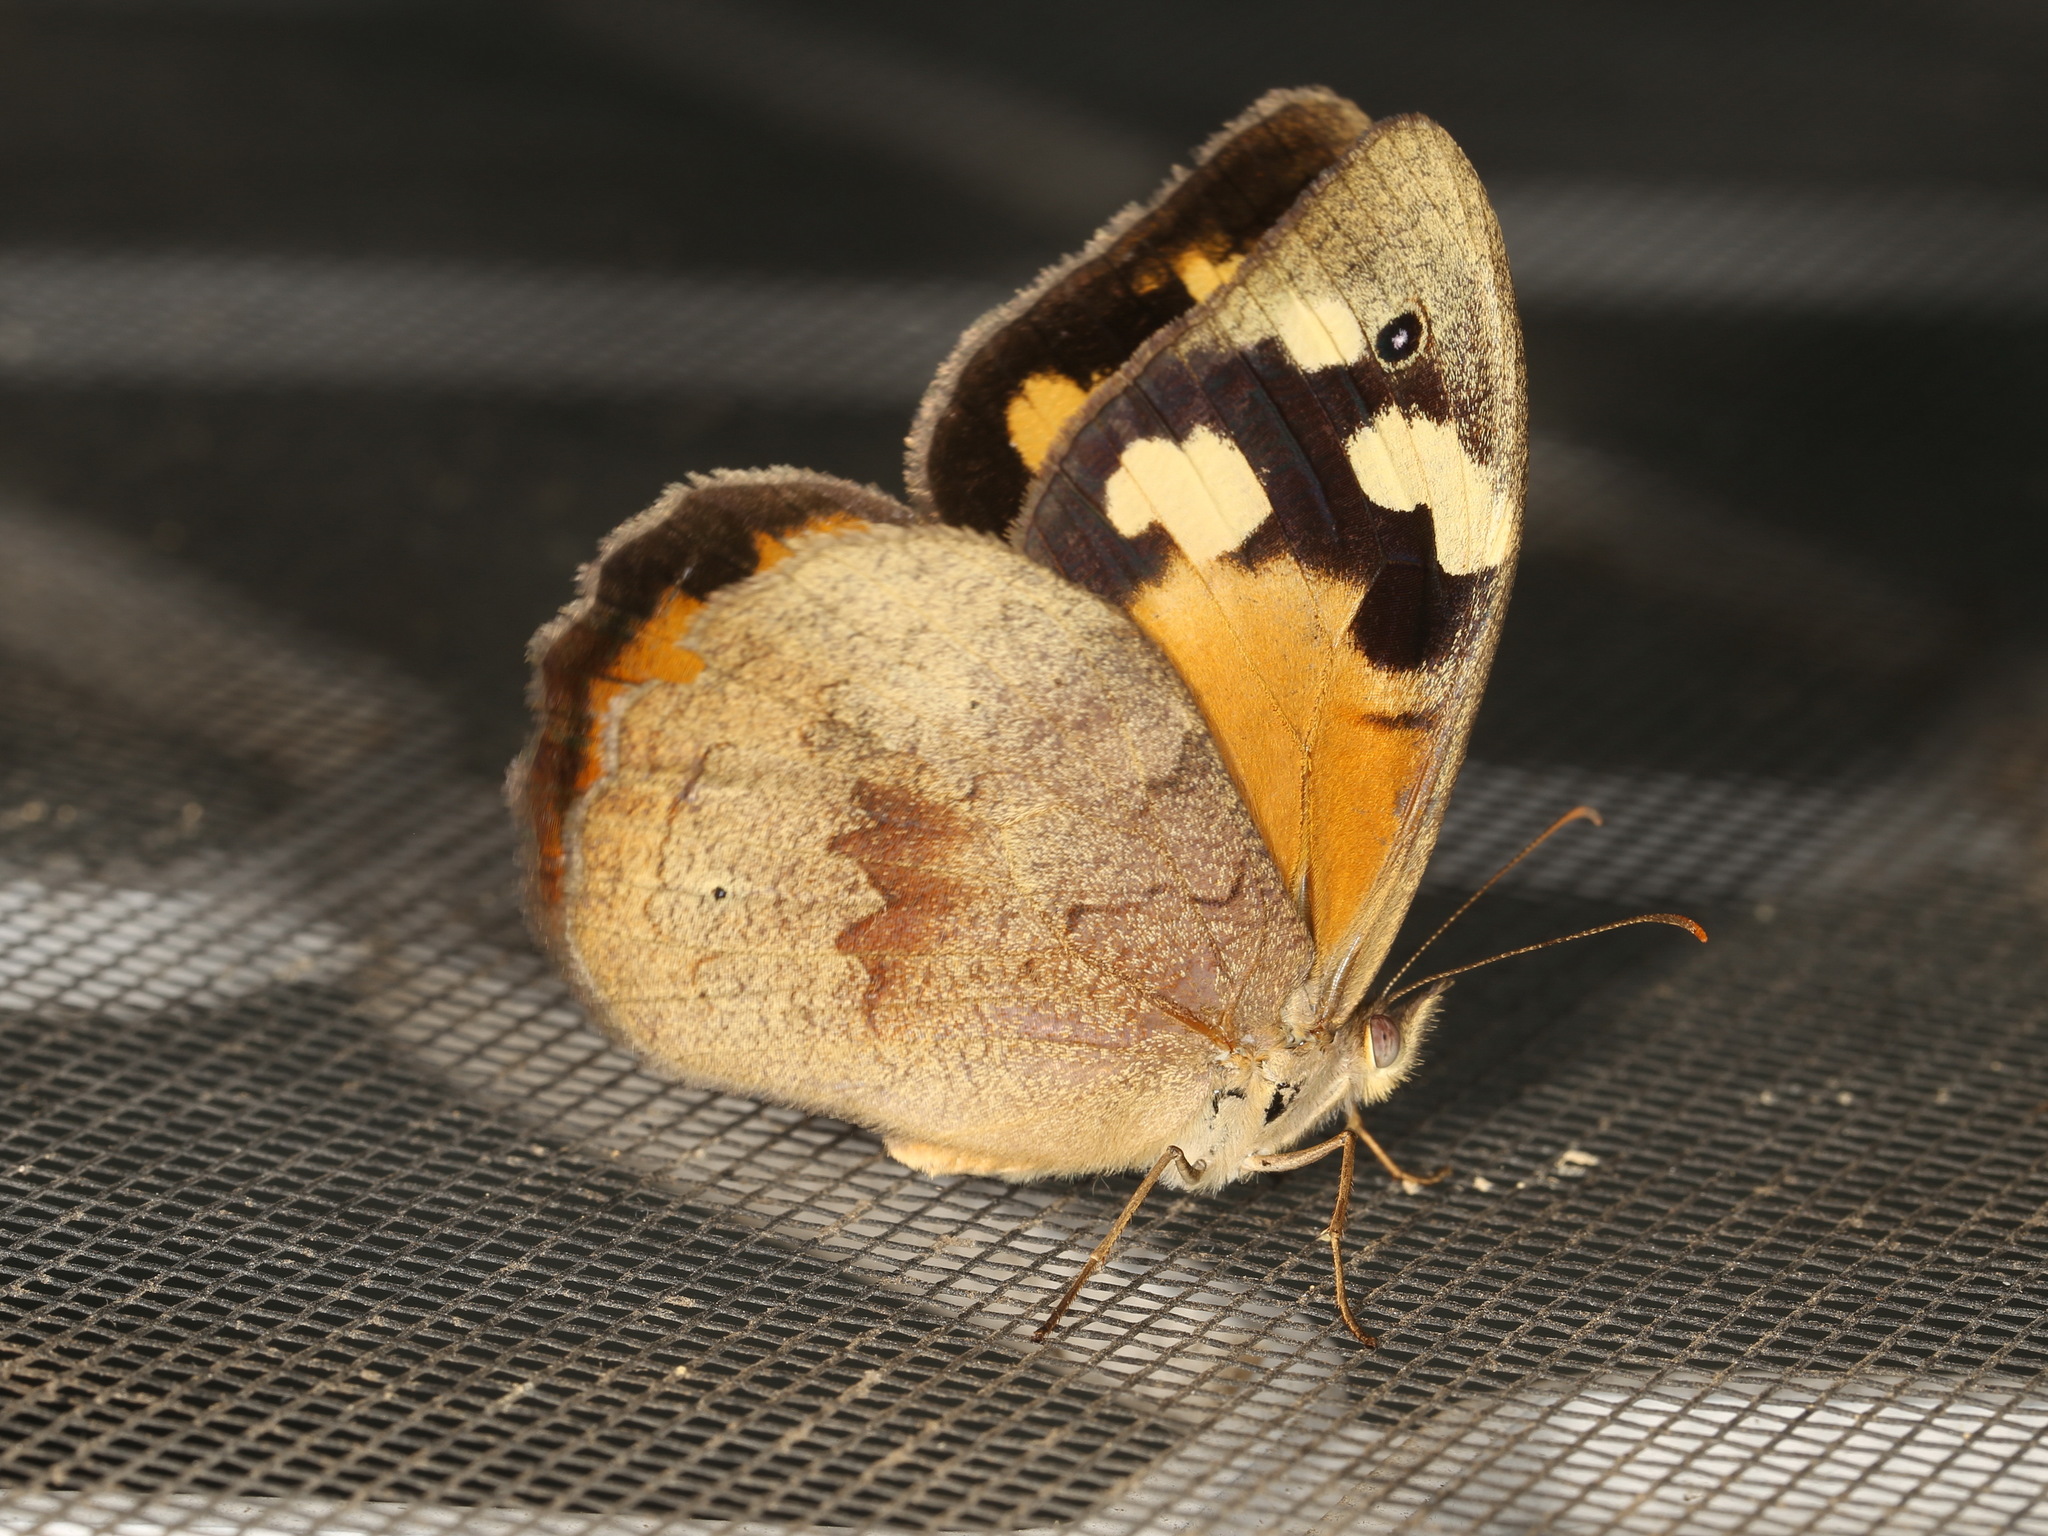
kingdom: Animalia
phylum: Arthropoda
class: Insecta
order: Lepidoptera
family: Nymphalidae
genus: Heteronympha
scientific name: Heteronympha merope
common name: Common brown
